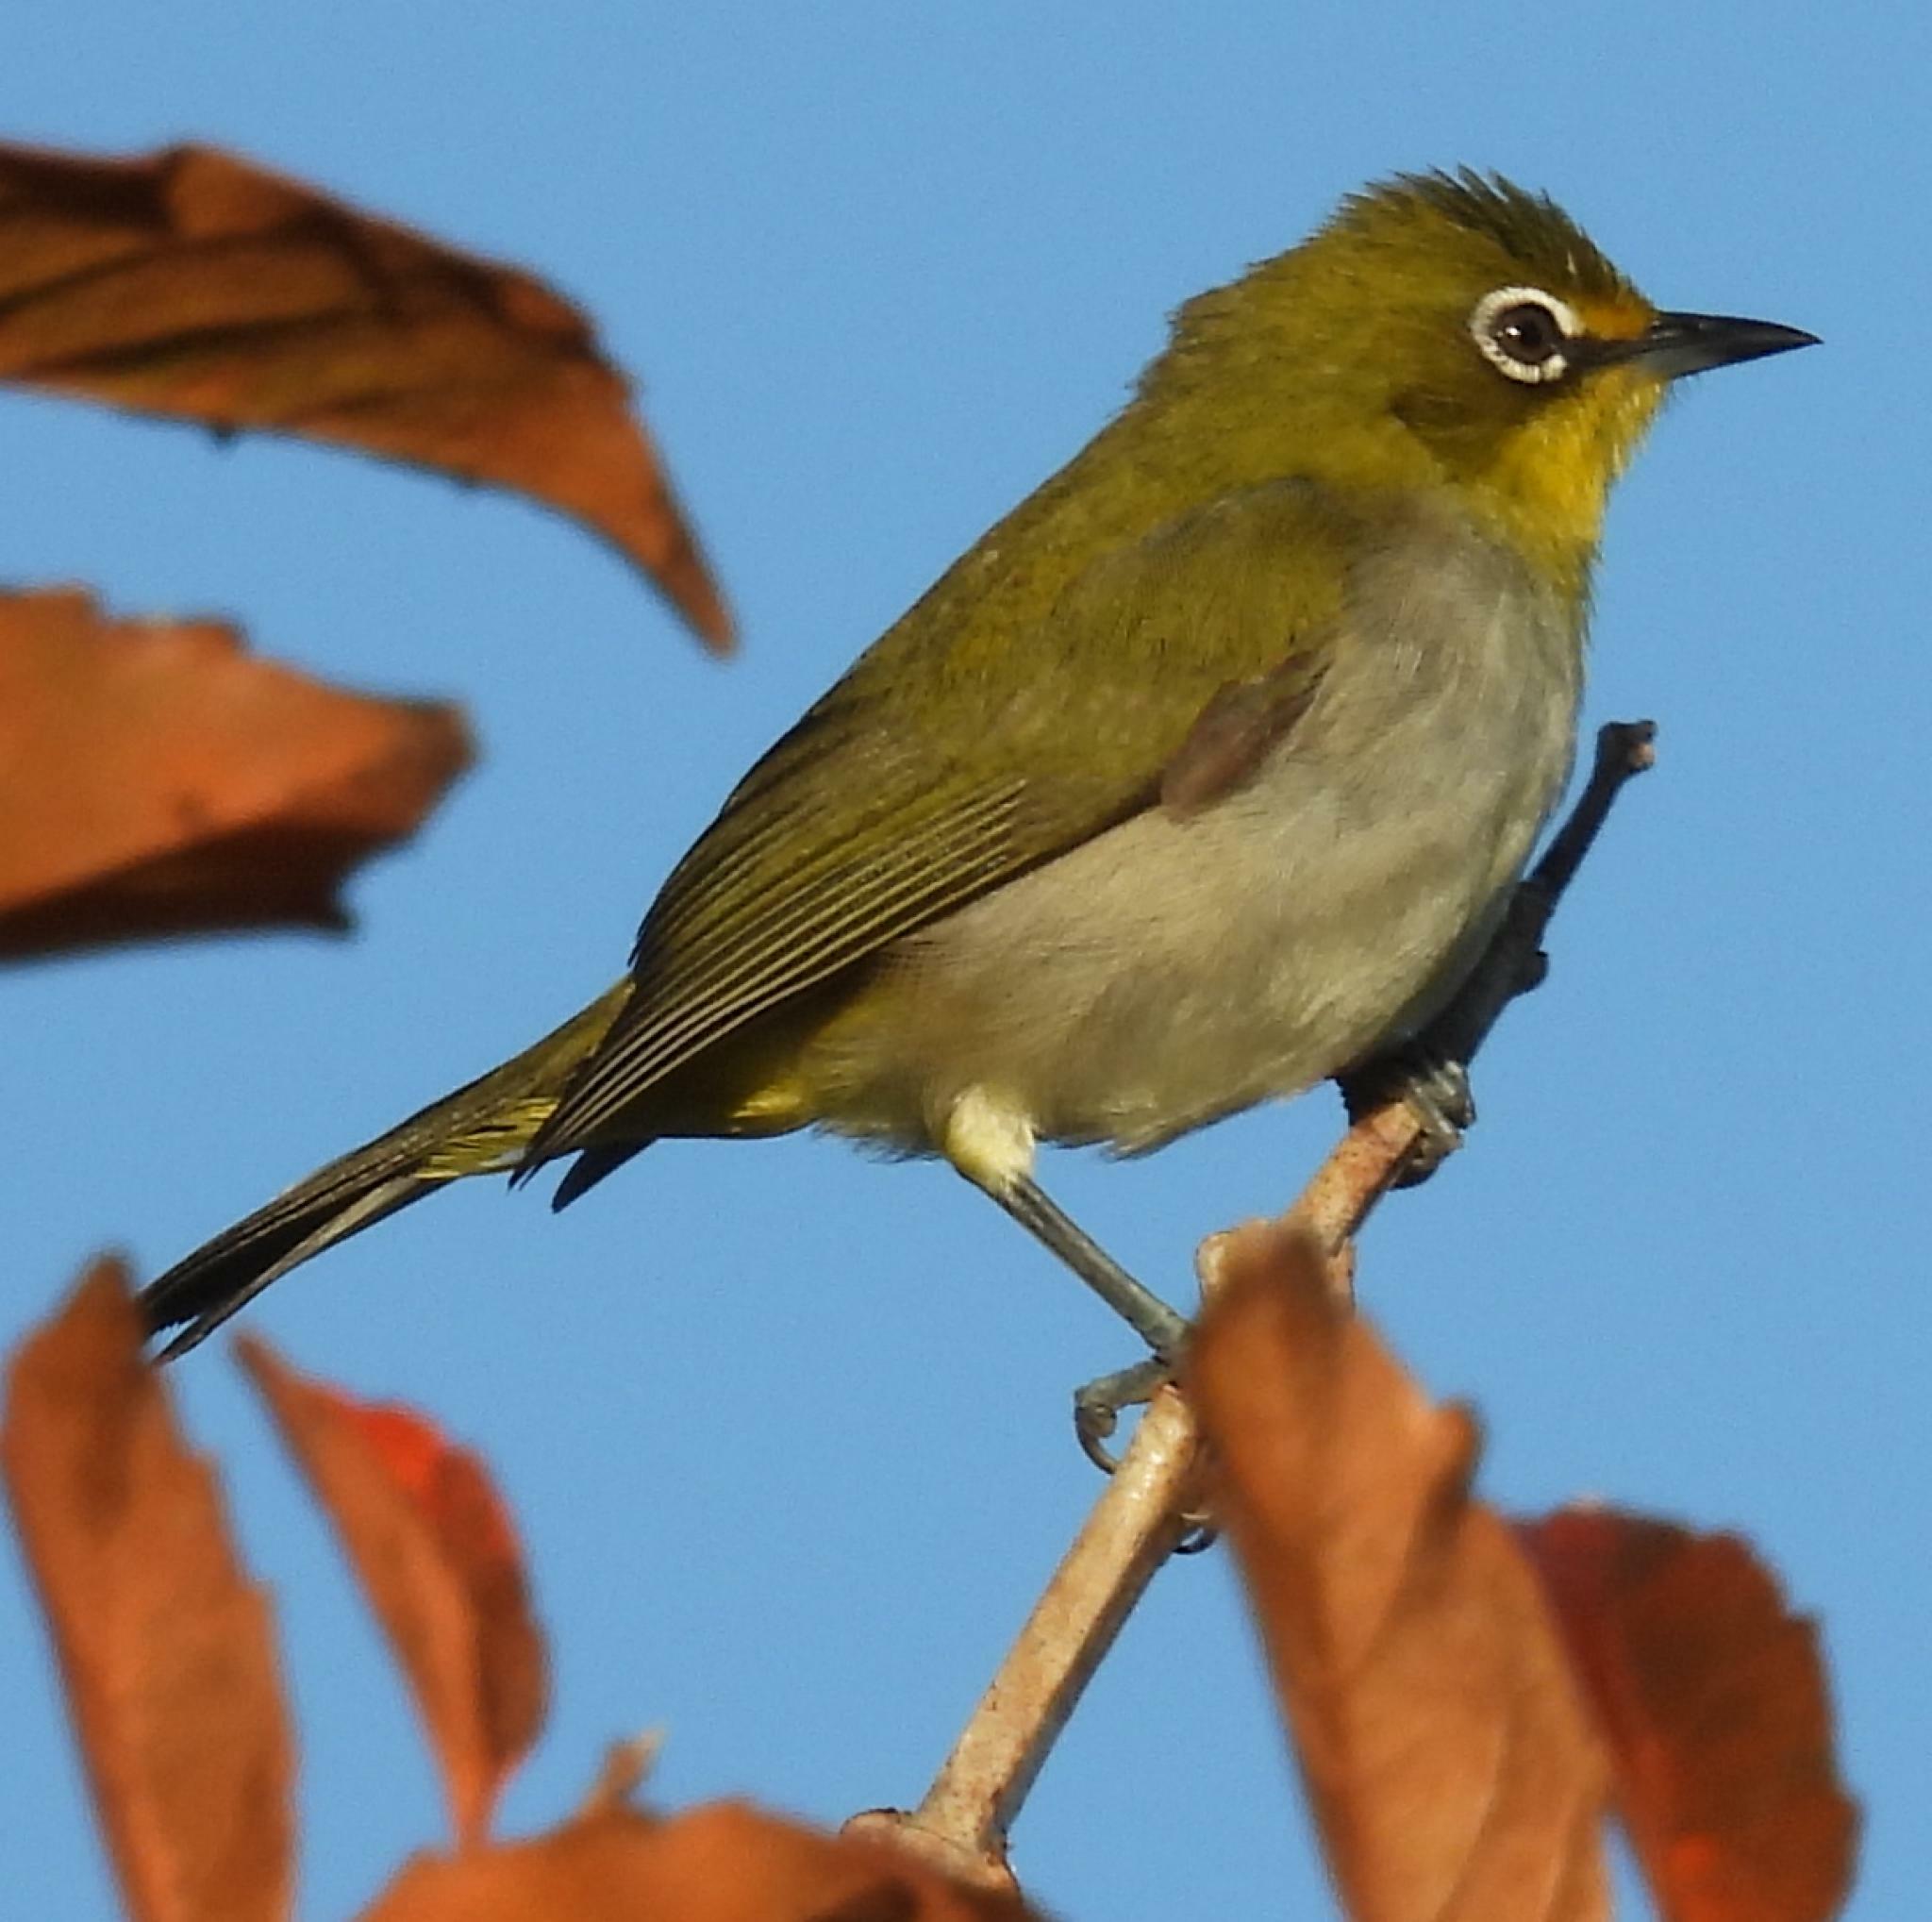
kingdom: Animalia
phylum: Chordata
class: Aves
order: Passeriformes
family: Zosteropidae
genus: Zosterops
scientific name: Zosterops virens
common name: Cape white-eye
